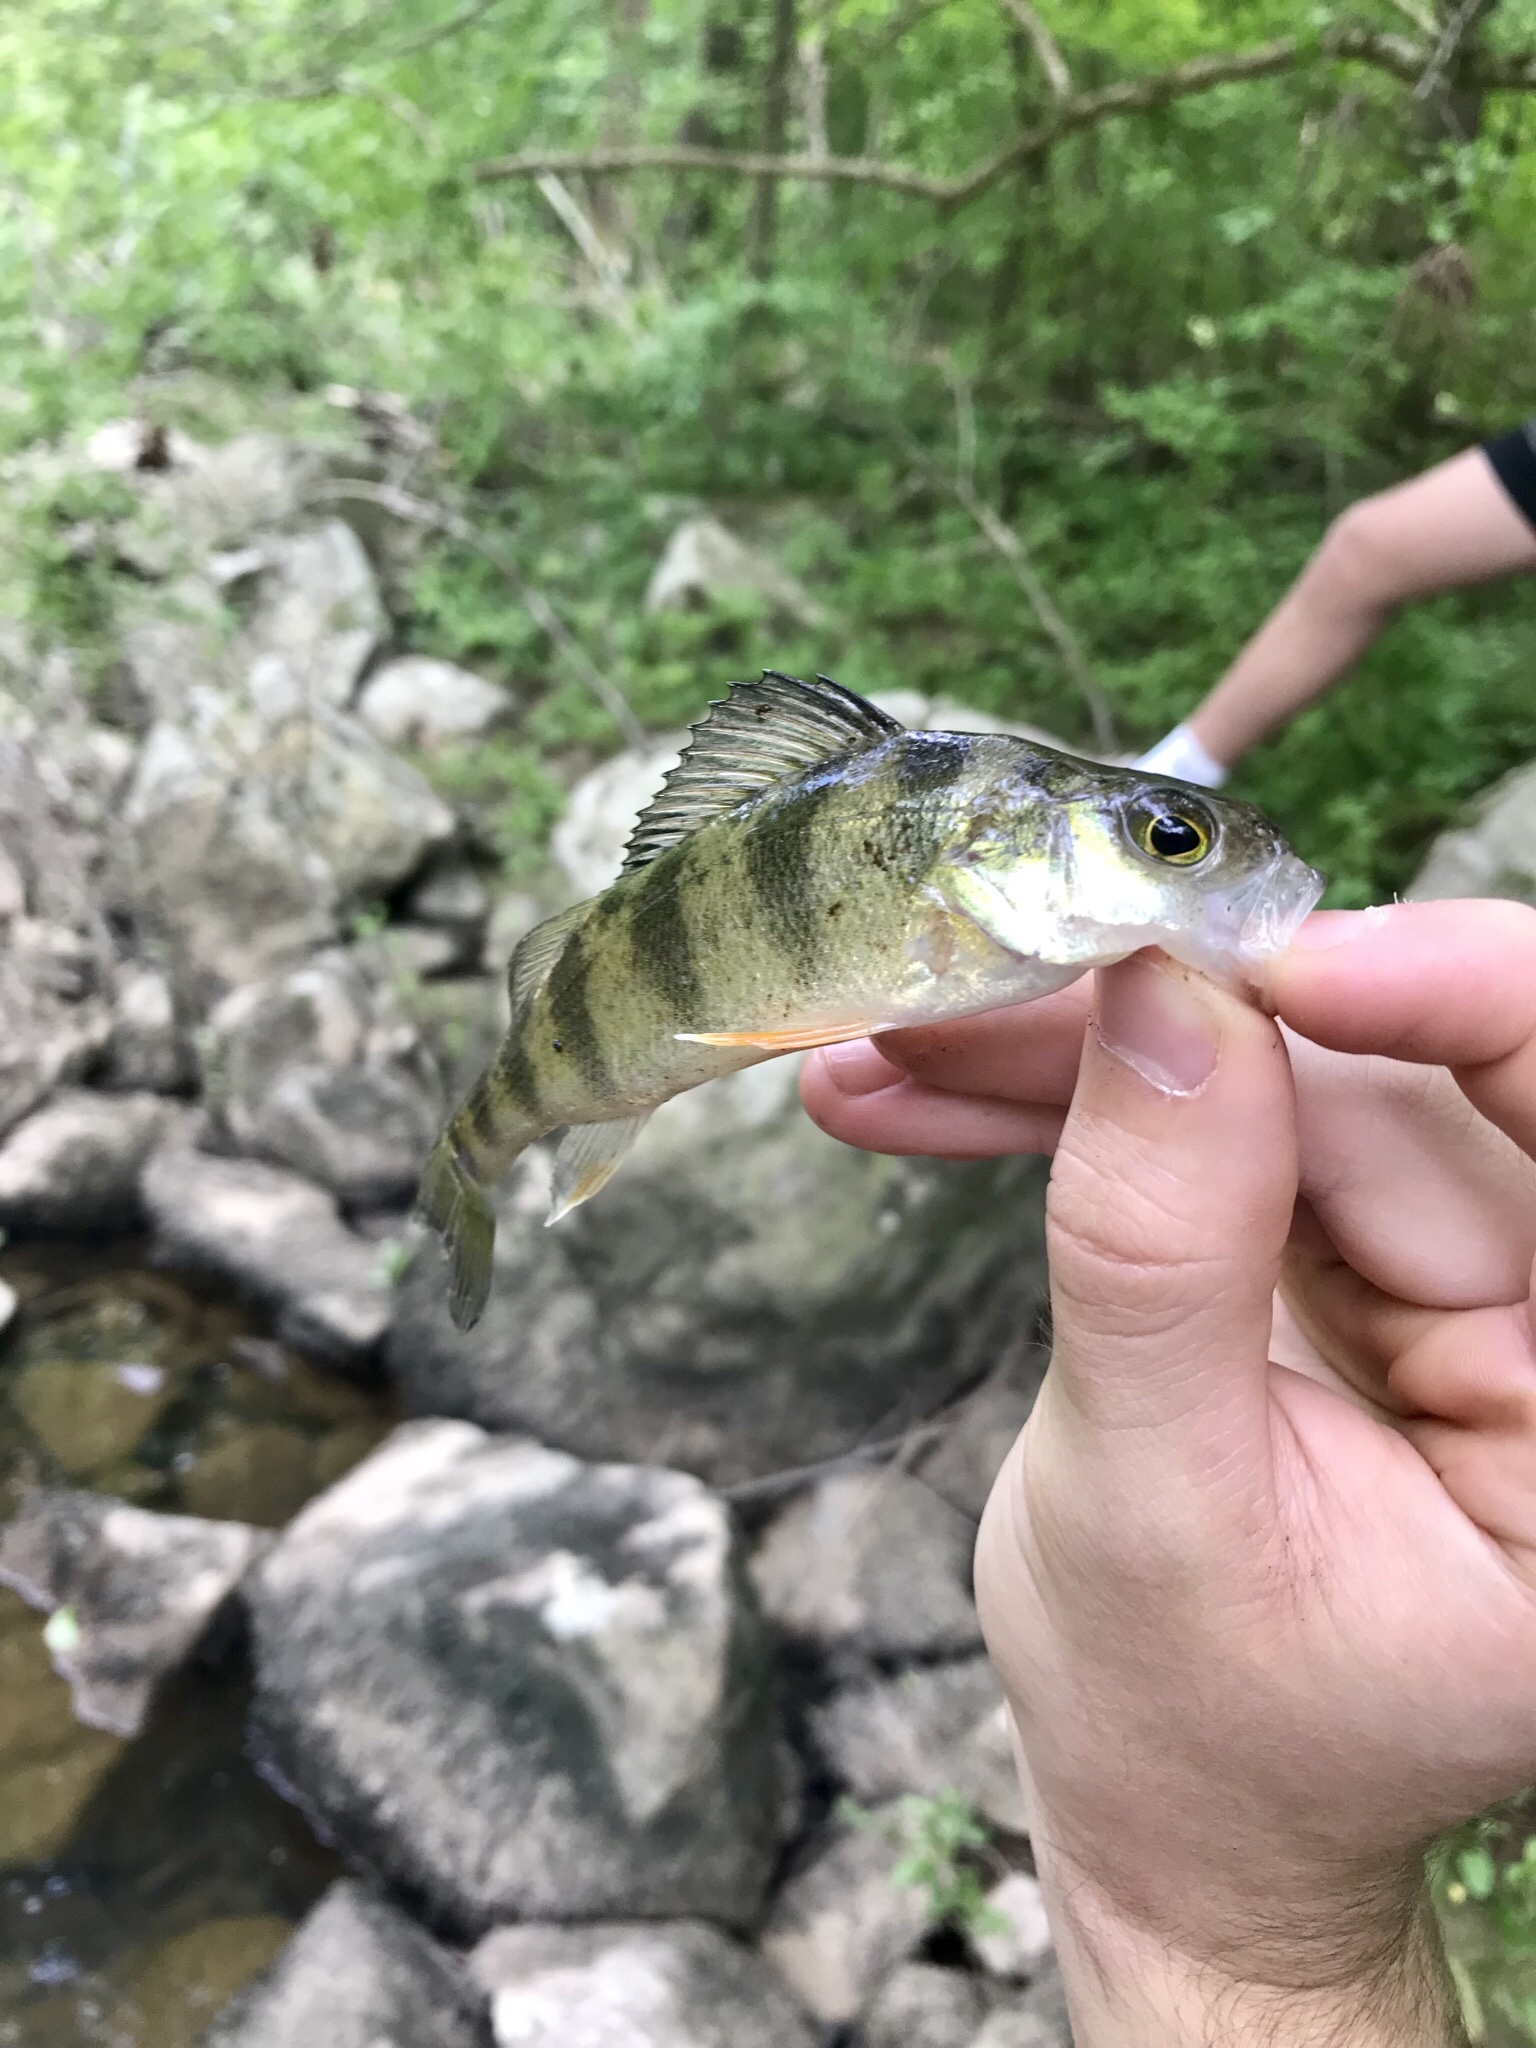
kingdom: Animalia
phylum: Chordata
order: Perciformes
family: Percidae
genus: Perca
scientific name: Perca flavescens
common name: Yellow perch
